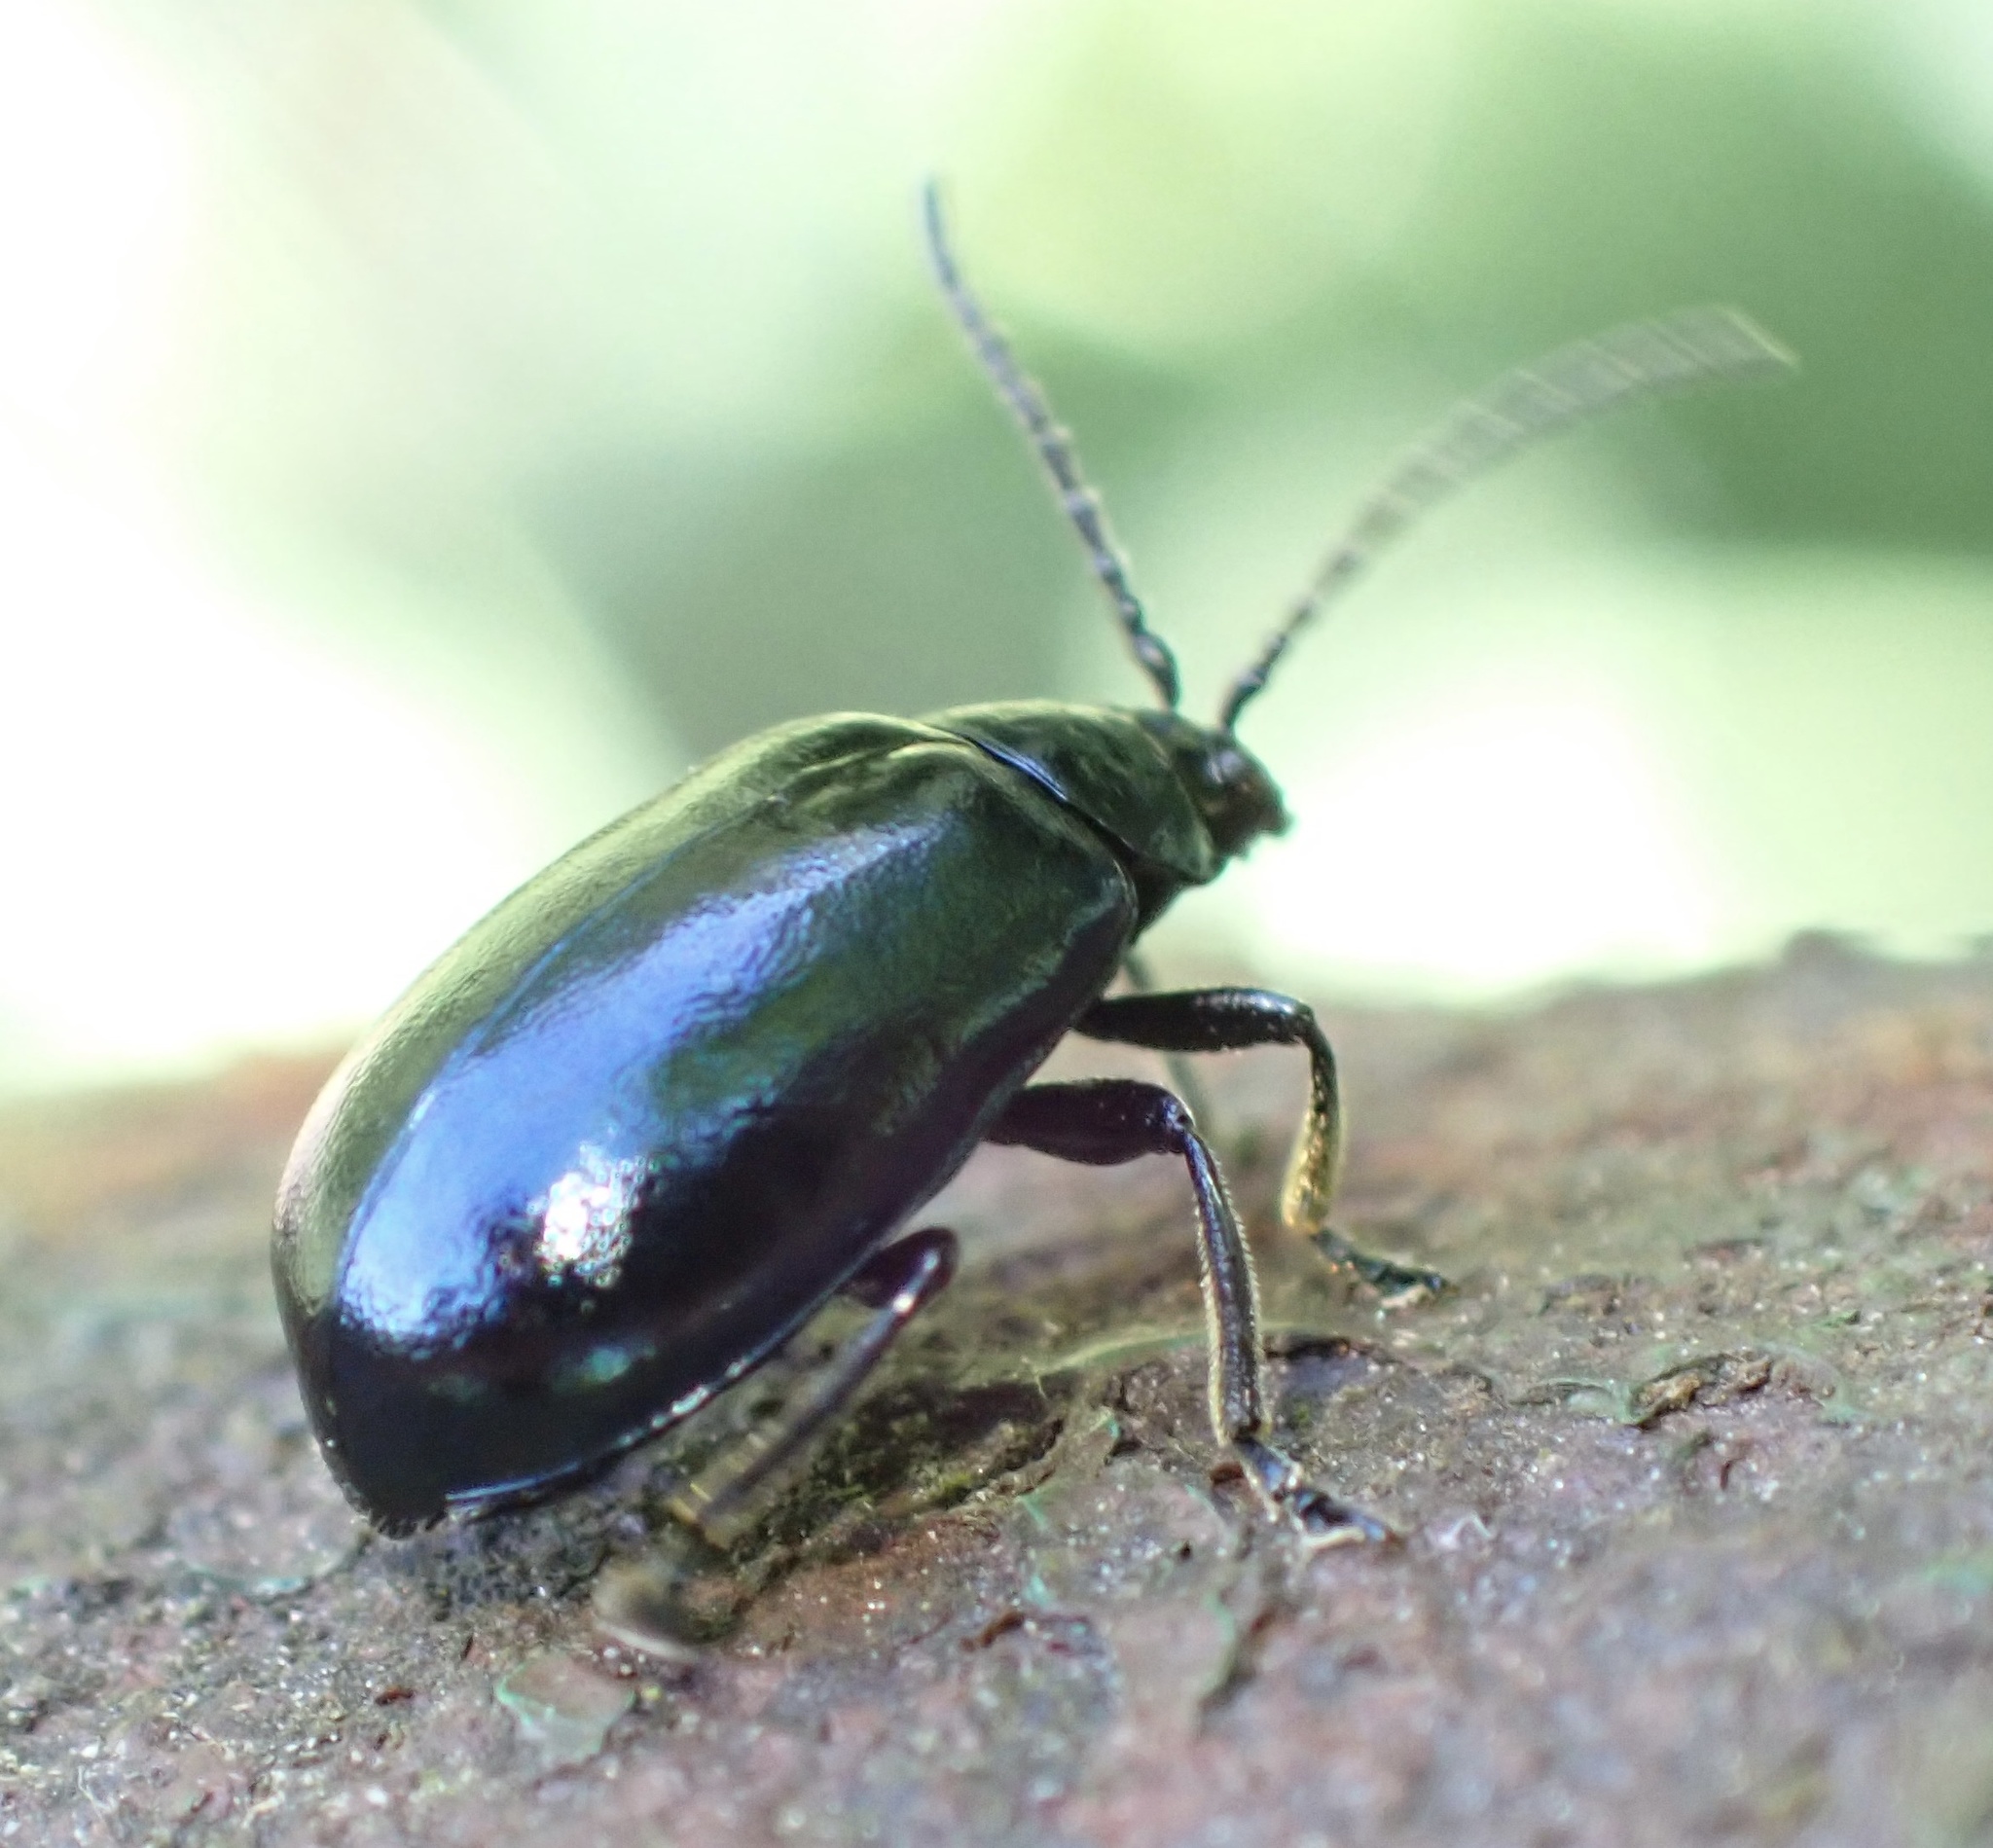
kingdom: Animalia
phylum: Arthropoda
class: Insecta
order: Coleoptera
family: Chrysomelidae
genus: Agelastica
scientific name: Agelastica alni
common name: Alder leaf beetle
